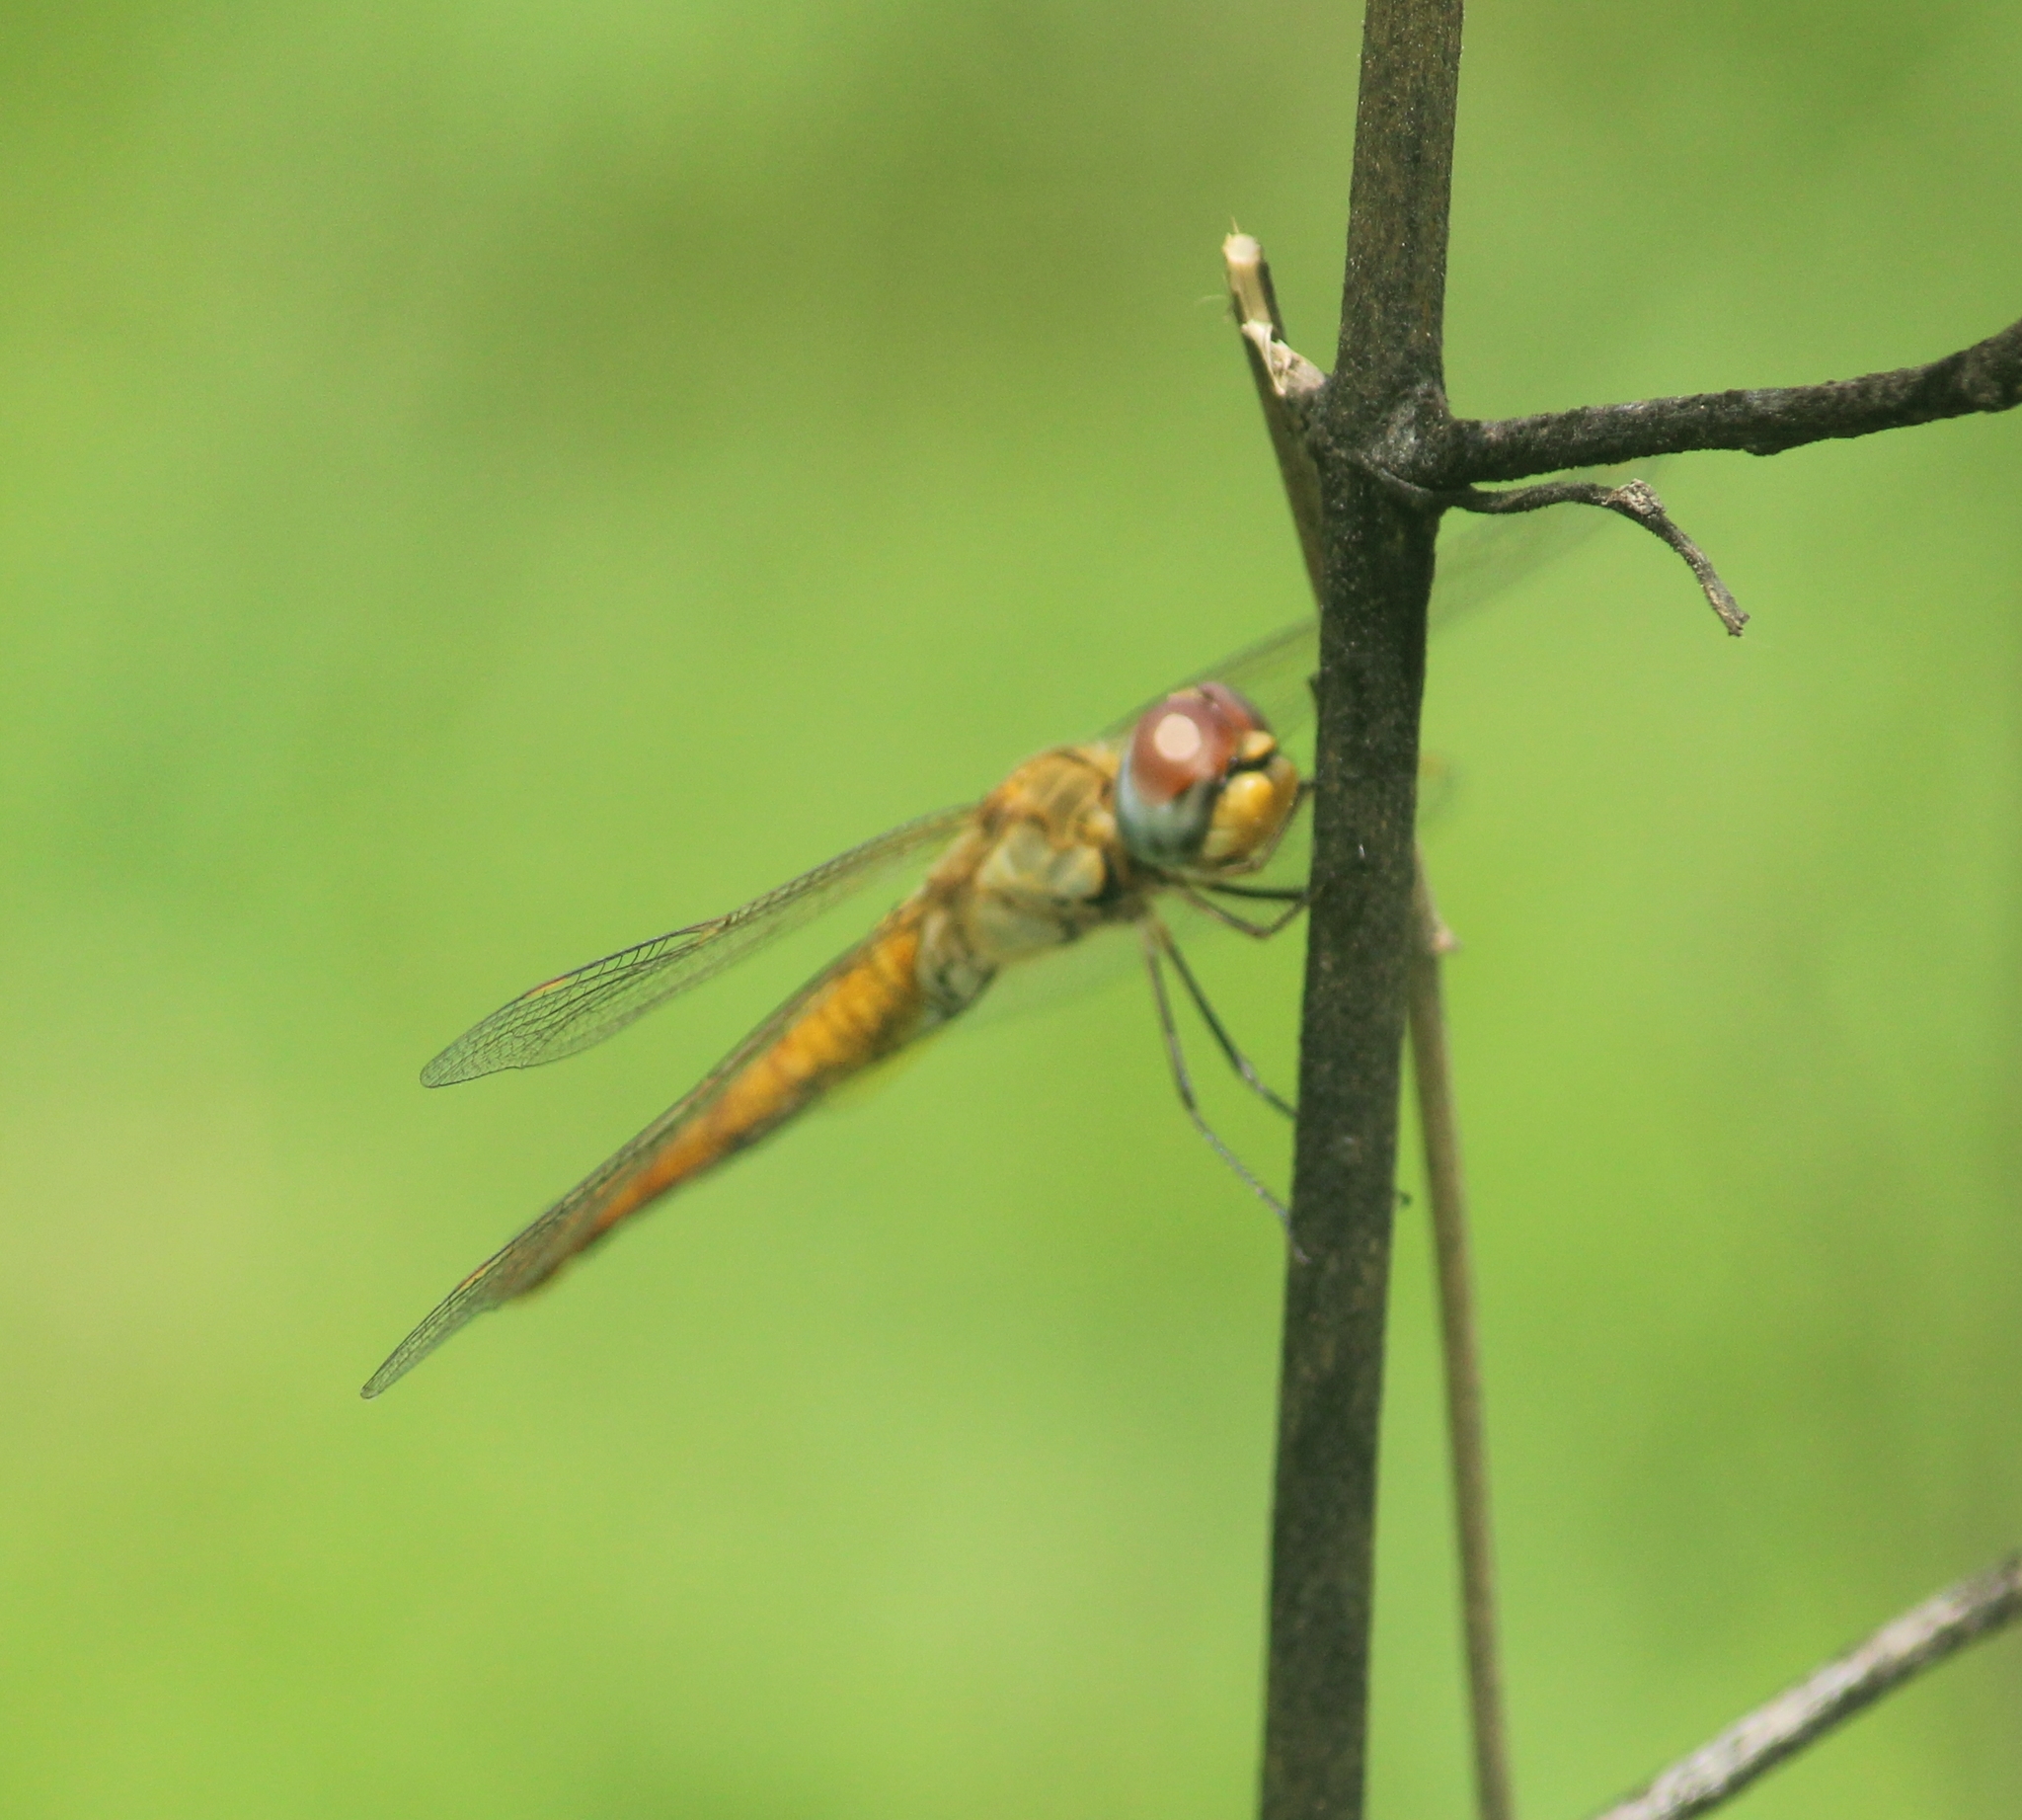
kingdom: Animalia
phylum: Arthropoda
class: Insecta
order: Odonata
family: Libellulidae
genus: Pantala
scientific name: Pantala flavescens
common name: Wandering glider
